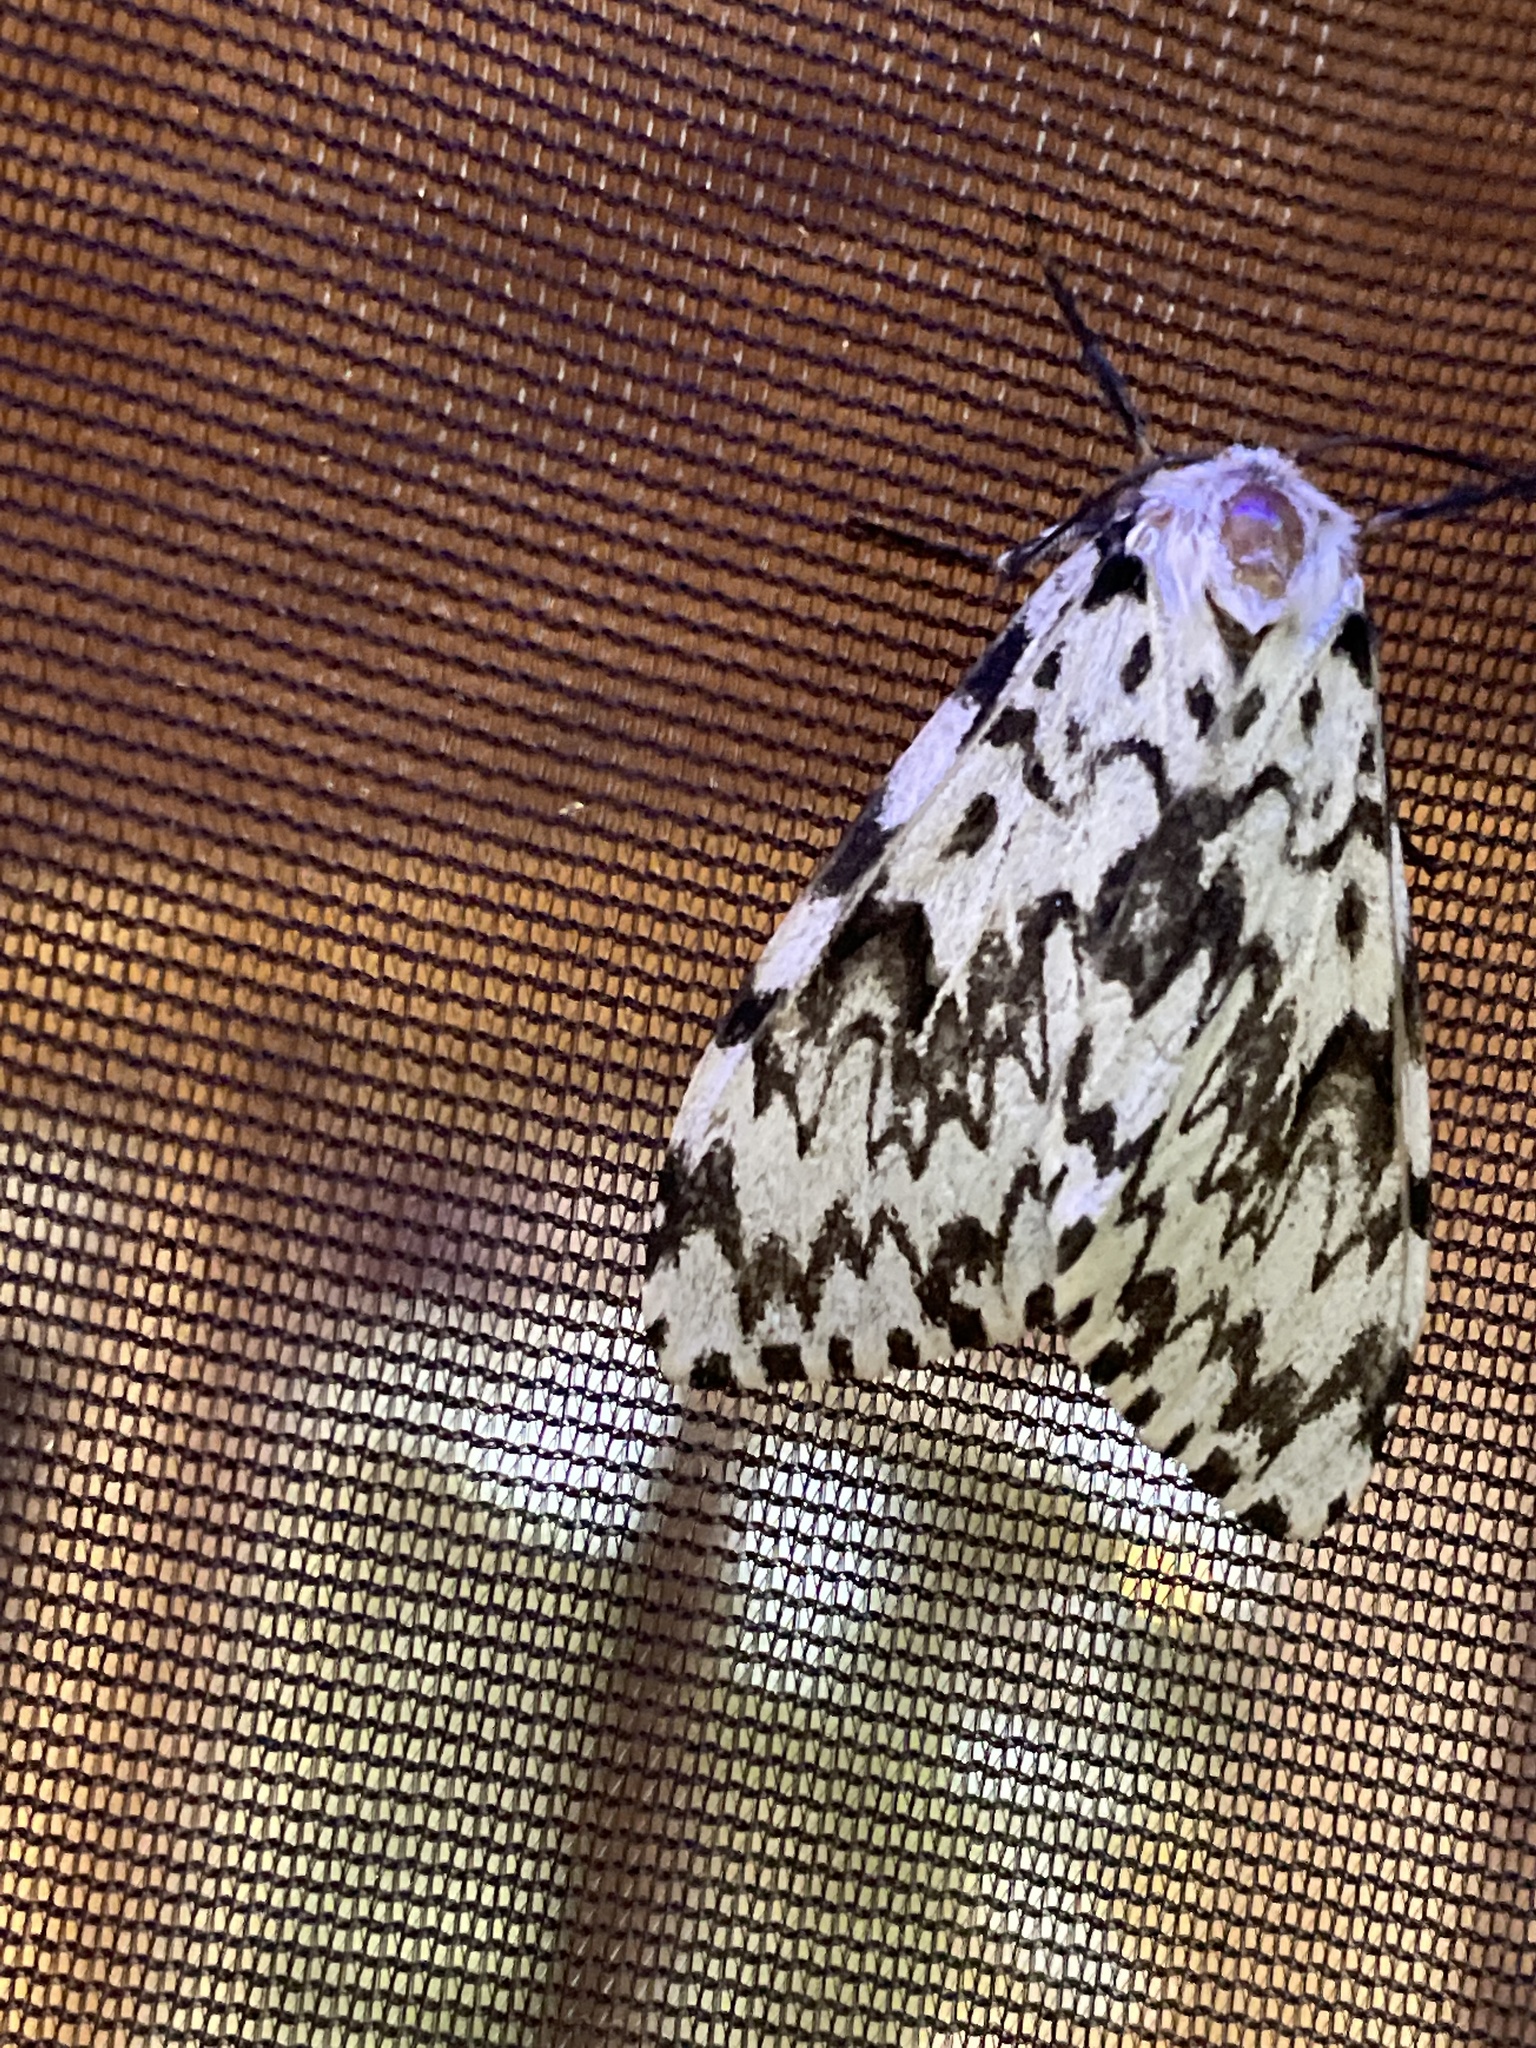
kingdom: Animalia
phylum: Arthropoda
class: Insecta
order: Lepidoptera
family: Erebidae
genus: Lymantria
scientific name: Lymantria monacha
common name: Black arches
